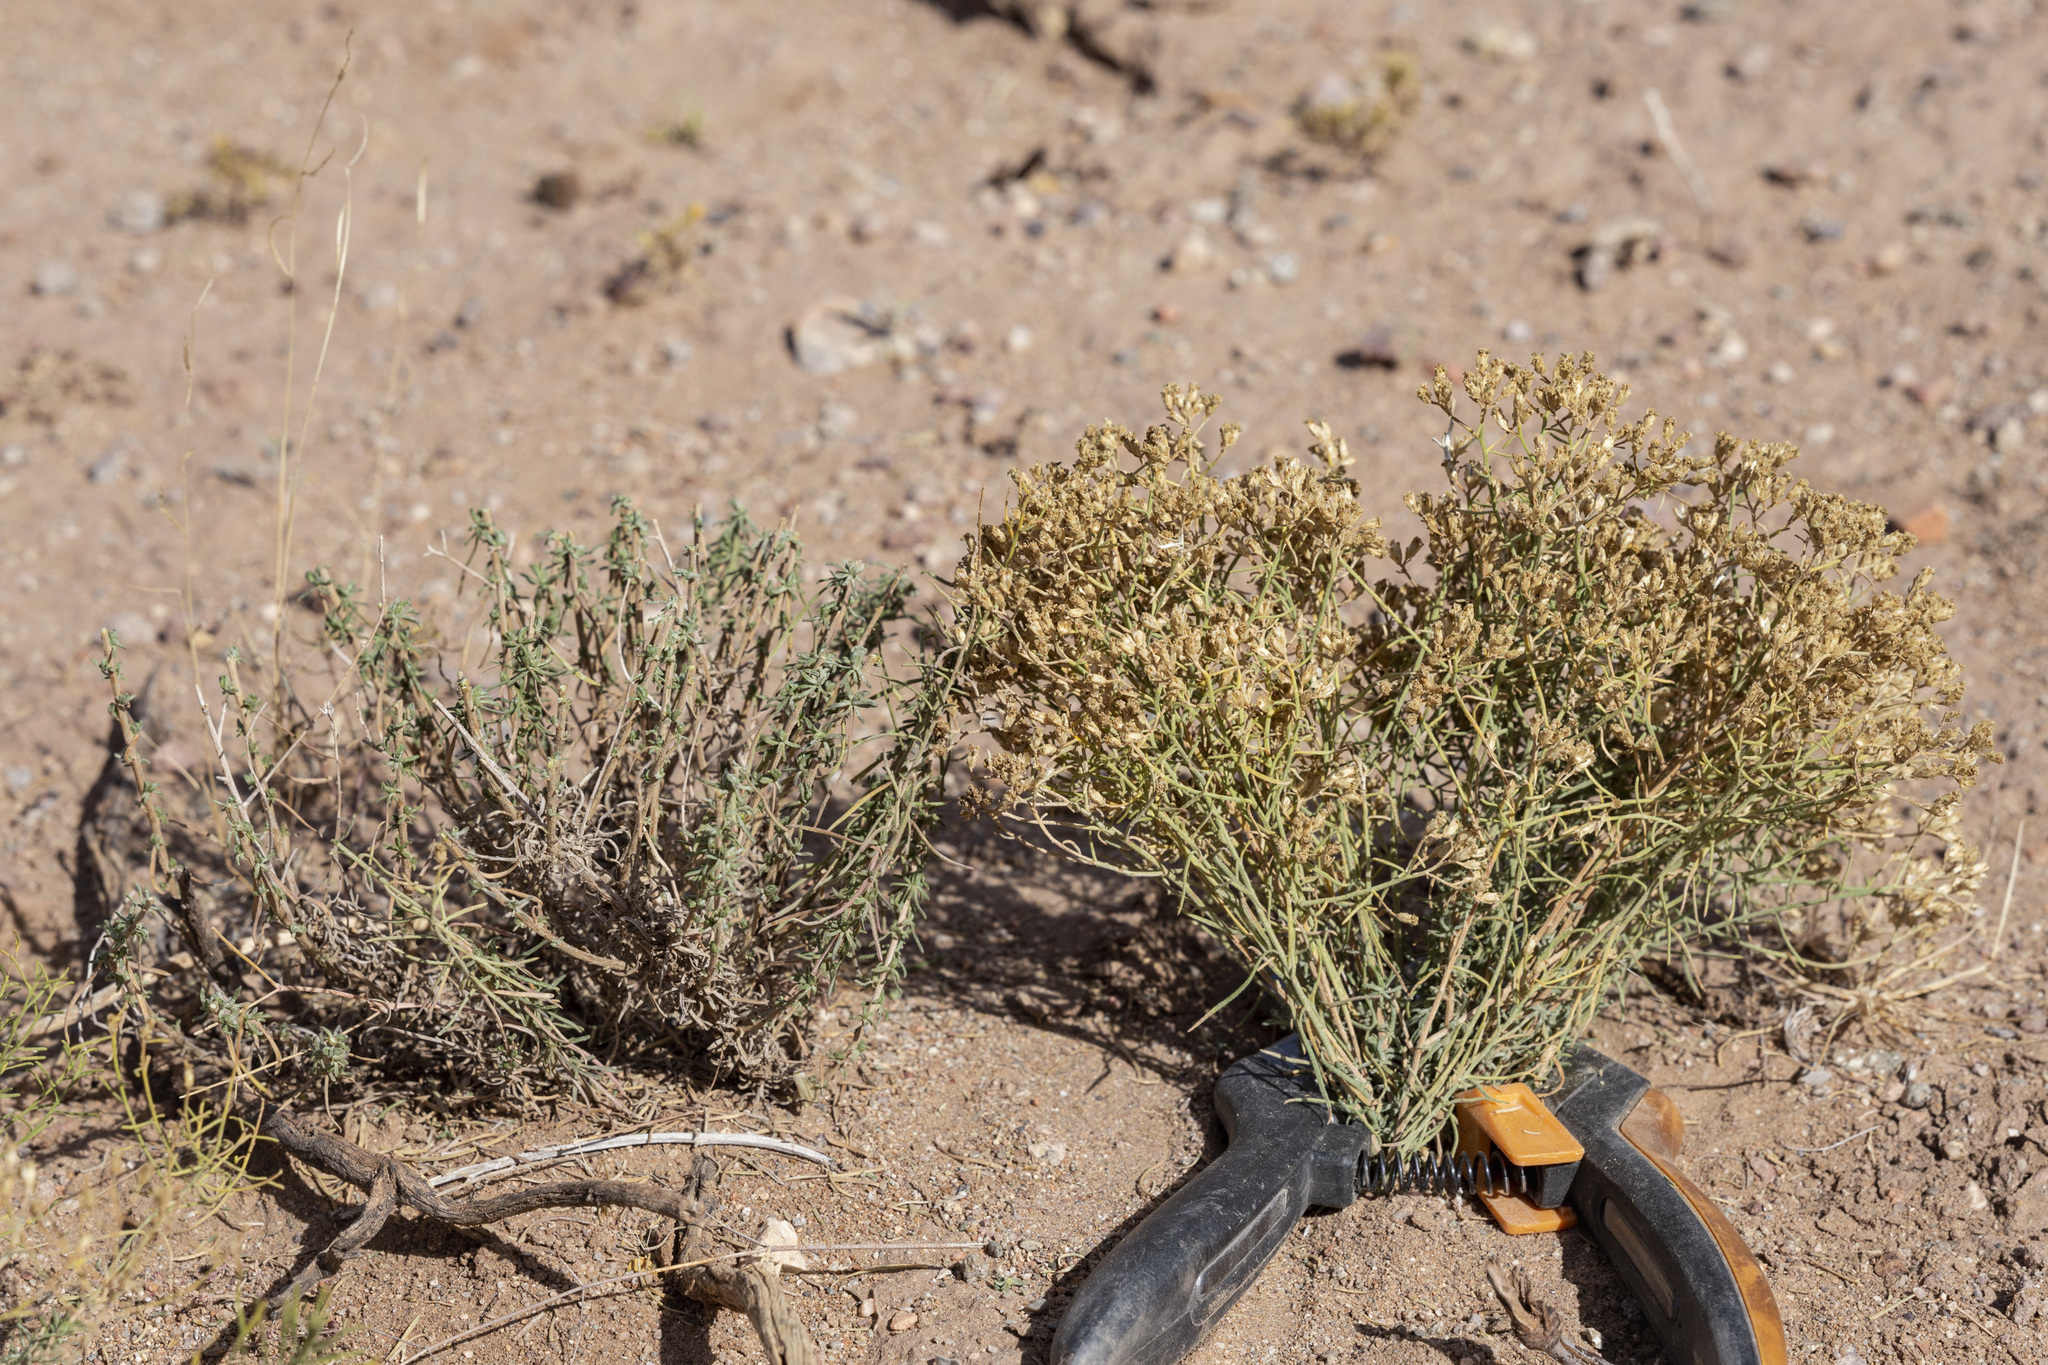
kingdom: Plantae
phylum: Tracheophyta
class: Magnoliopsida
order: Asterales
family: Asteraceae
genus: Gutierrezia
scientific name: Gutierrezia sarothrae
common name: Broom snakeweed
